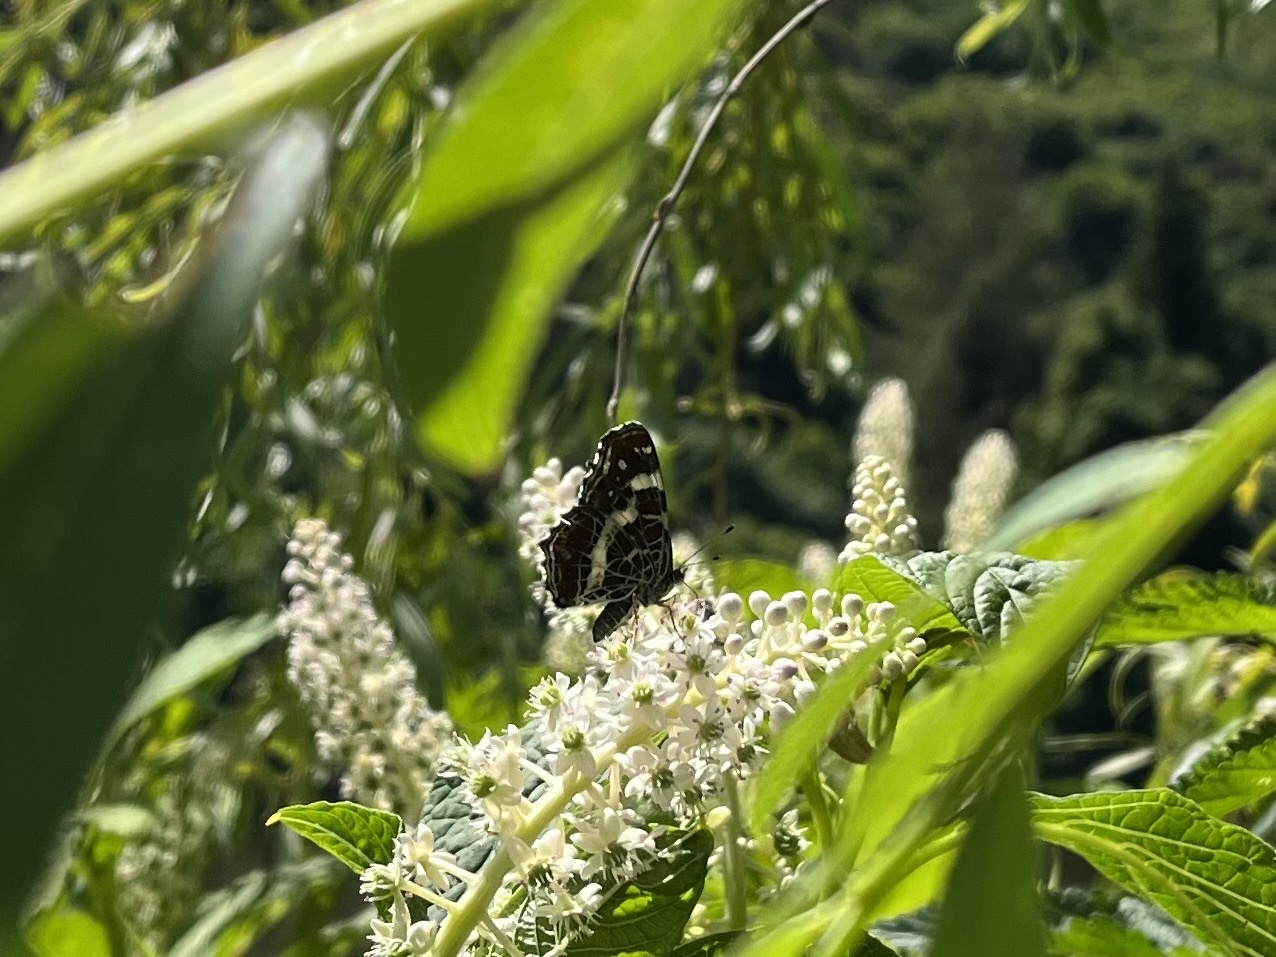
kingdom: Animalia
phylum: Arthropoda
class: Insecta
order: Lepidoptera
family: Nymphalidae
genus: Araschnia
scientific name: Araschnia levana
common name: Map butterfly
